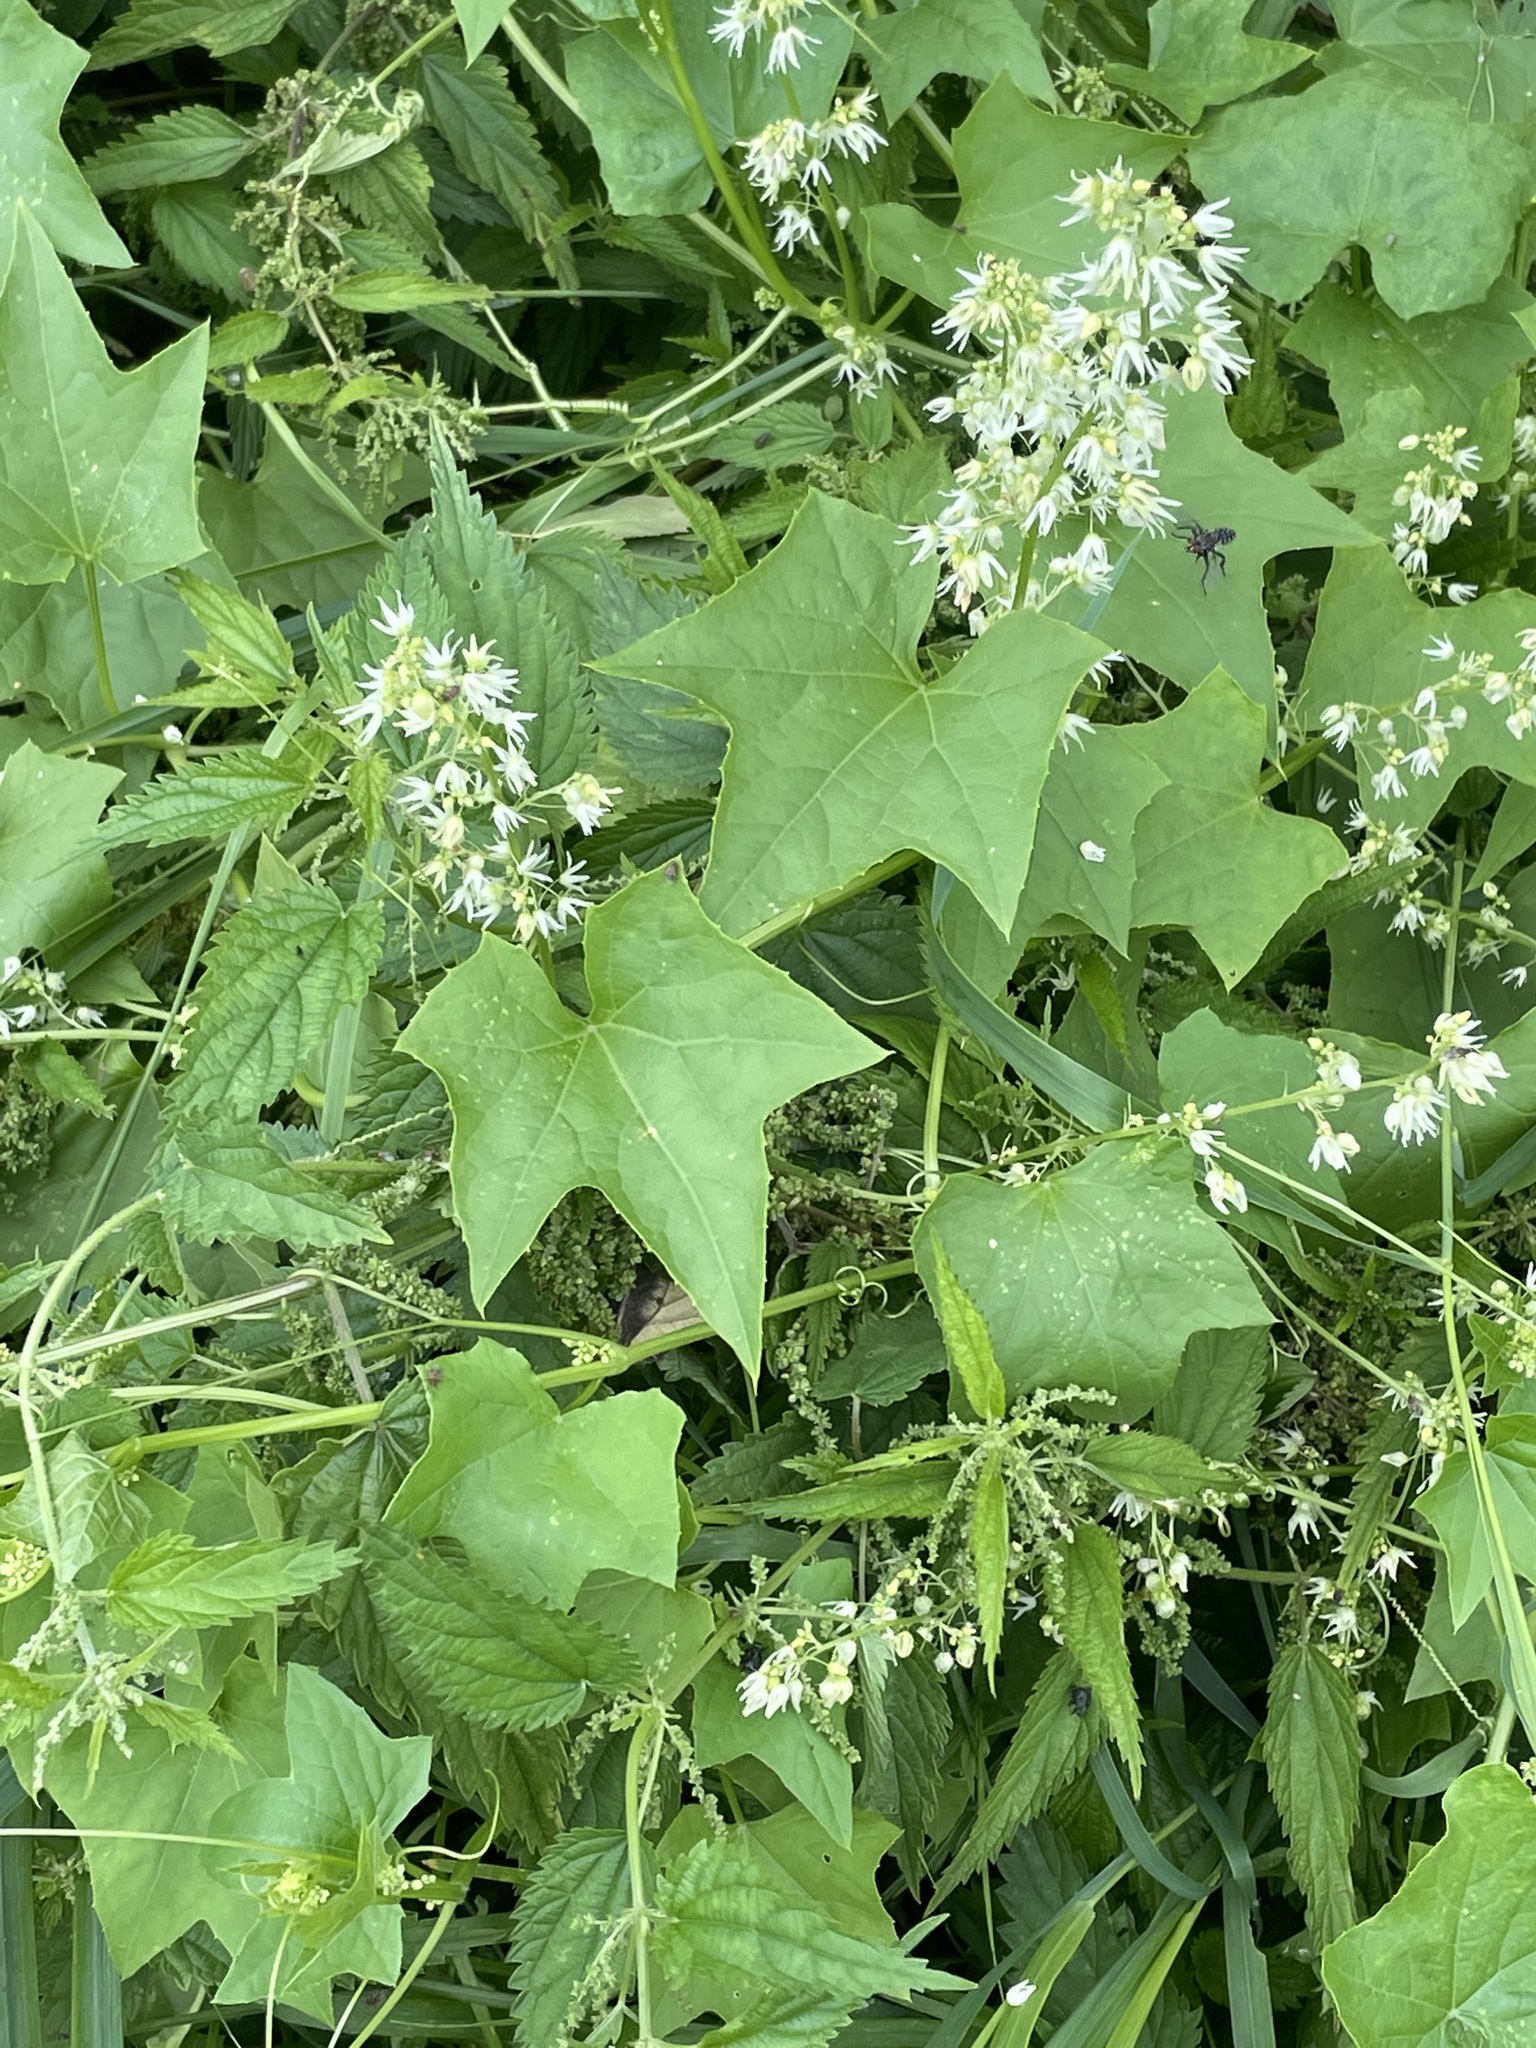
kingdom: Plantae
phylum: Tracheophyta
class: Magnoliopsida
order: Cucurbitales
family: Cucurbitaceae
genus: Echinocystis
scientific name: Echinocystis lobata
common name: Wild cucumber
